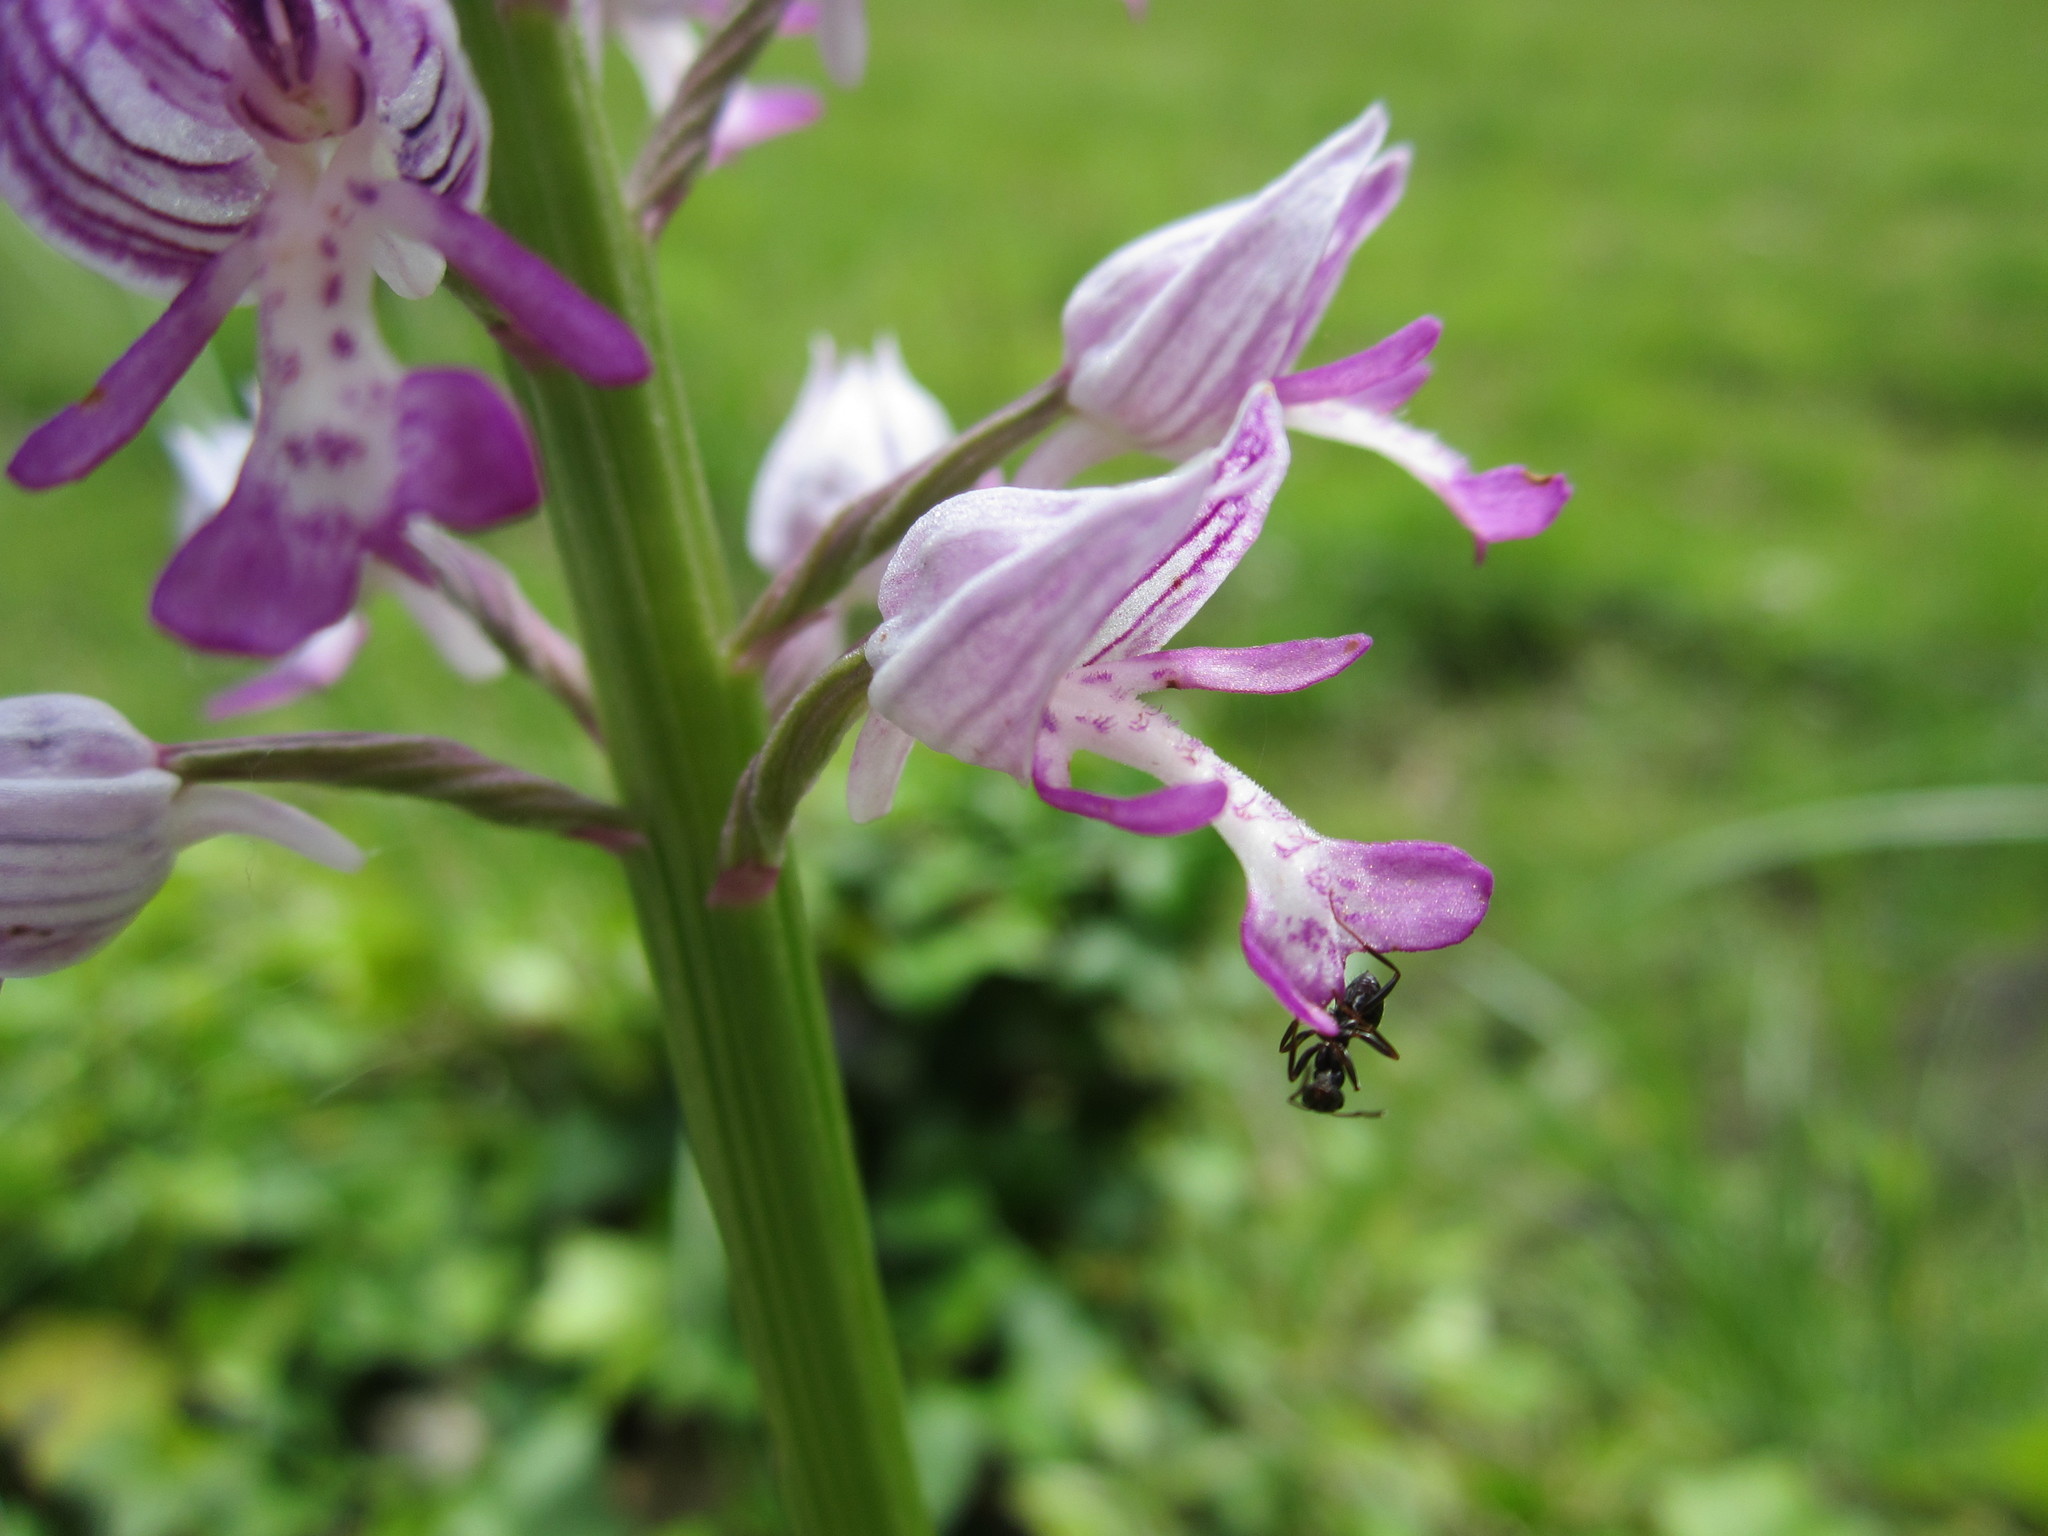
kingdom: Plantae
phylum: Tracheophyta
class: Liliopsida
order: Asparagales
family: Orchidaceae
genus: Orchis
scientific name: Orchis militaris
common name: Military orchid
